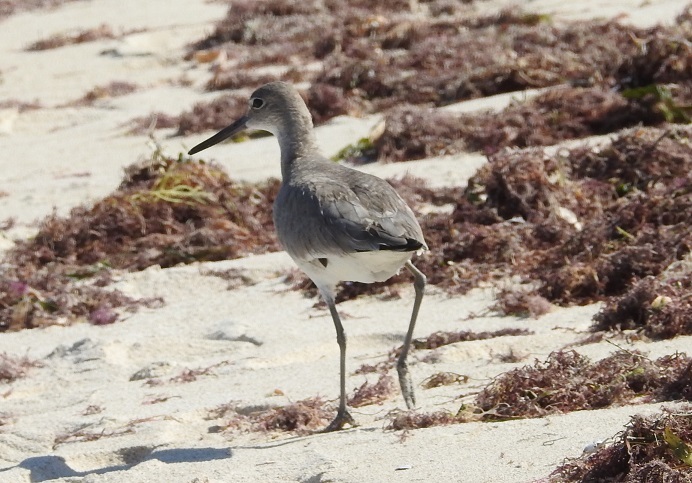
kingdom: Animalia
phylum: Chordata
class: Aves
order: Charadriiformes
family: Scolopacidae
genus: Tringa
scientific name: Tringa semipalmata
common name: Willet
